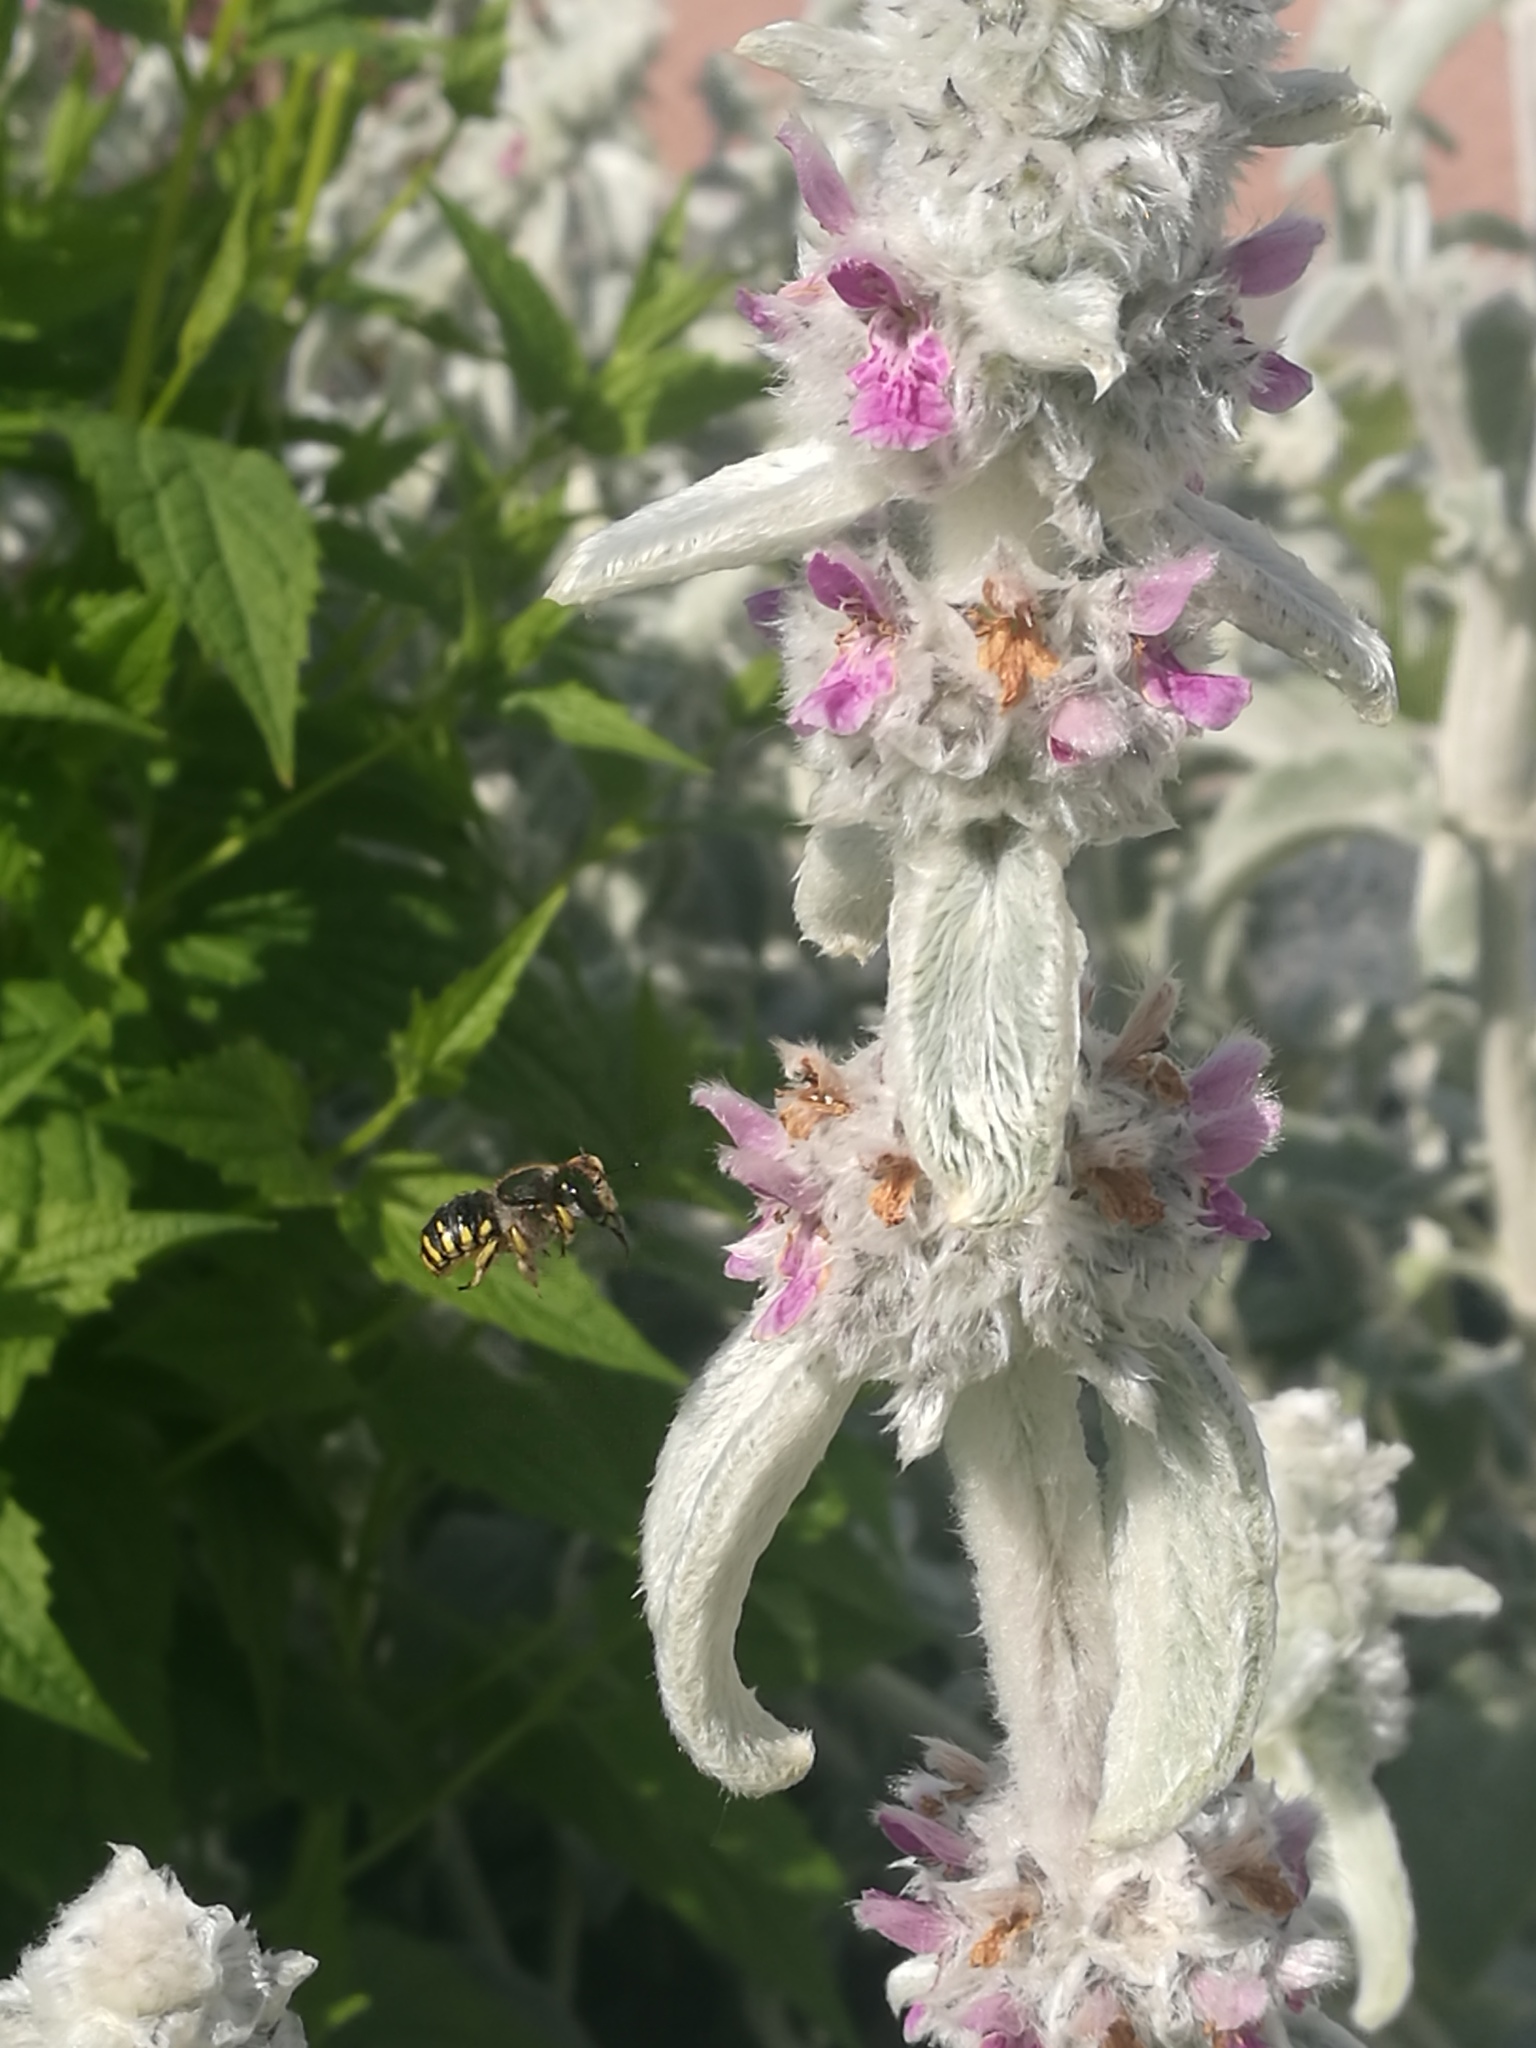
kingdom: Animalia
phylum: Arthropoda
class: Insecta
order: Hymenoptera
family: Megachilidae
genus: Anthidium
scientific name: Anthidium manicatum
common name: Wool carder bee
